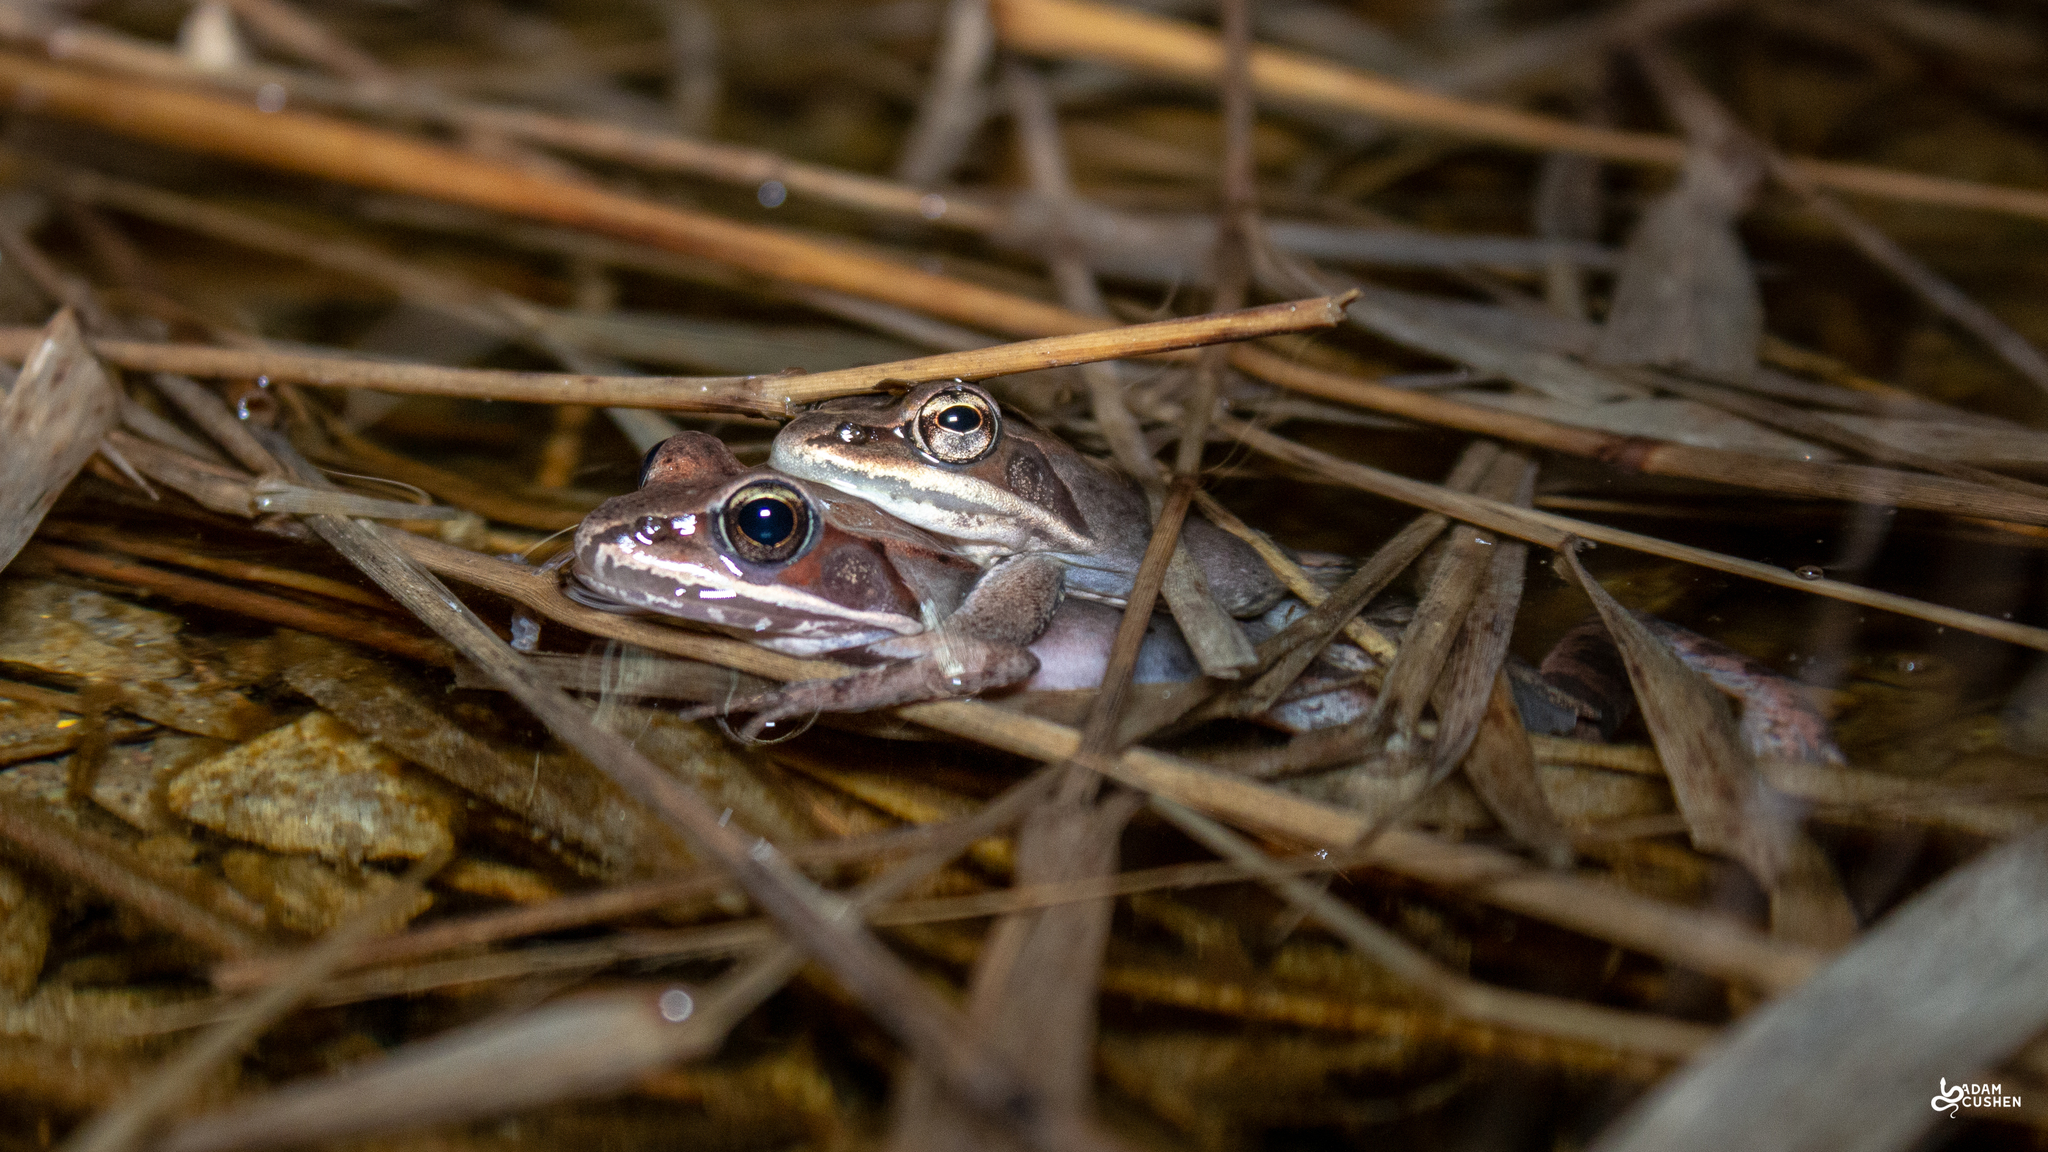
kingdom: Animalia
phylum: Chordata
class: Amphibia
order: Anura
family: Ranidae
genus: Lithobates
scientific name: Lithobates sylvaticus
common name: Wood frog
